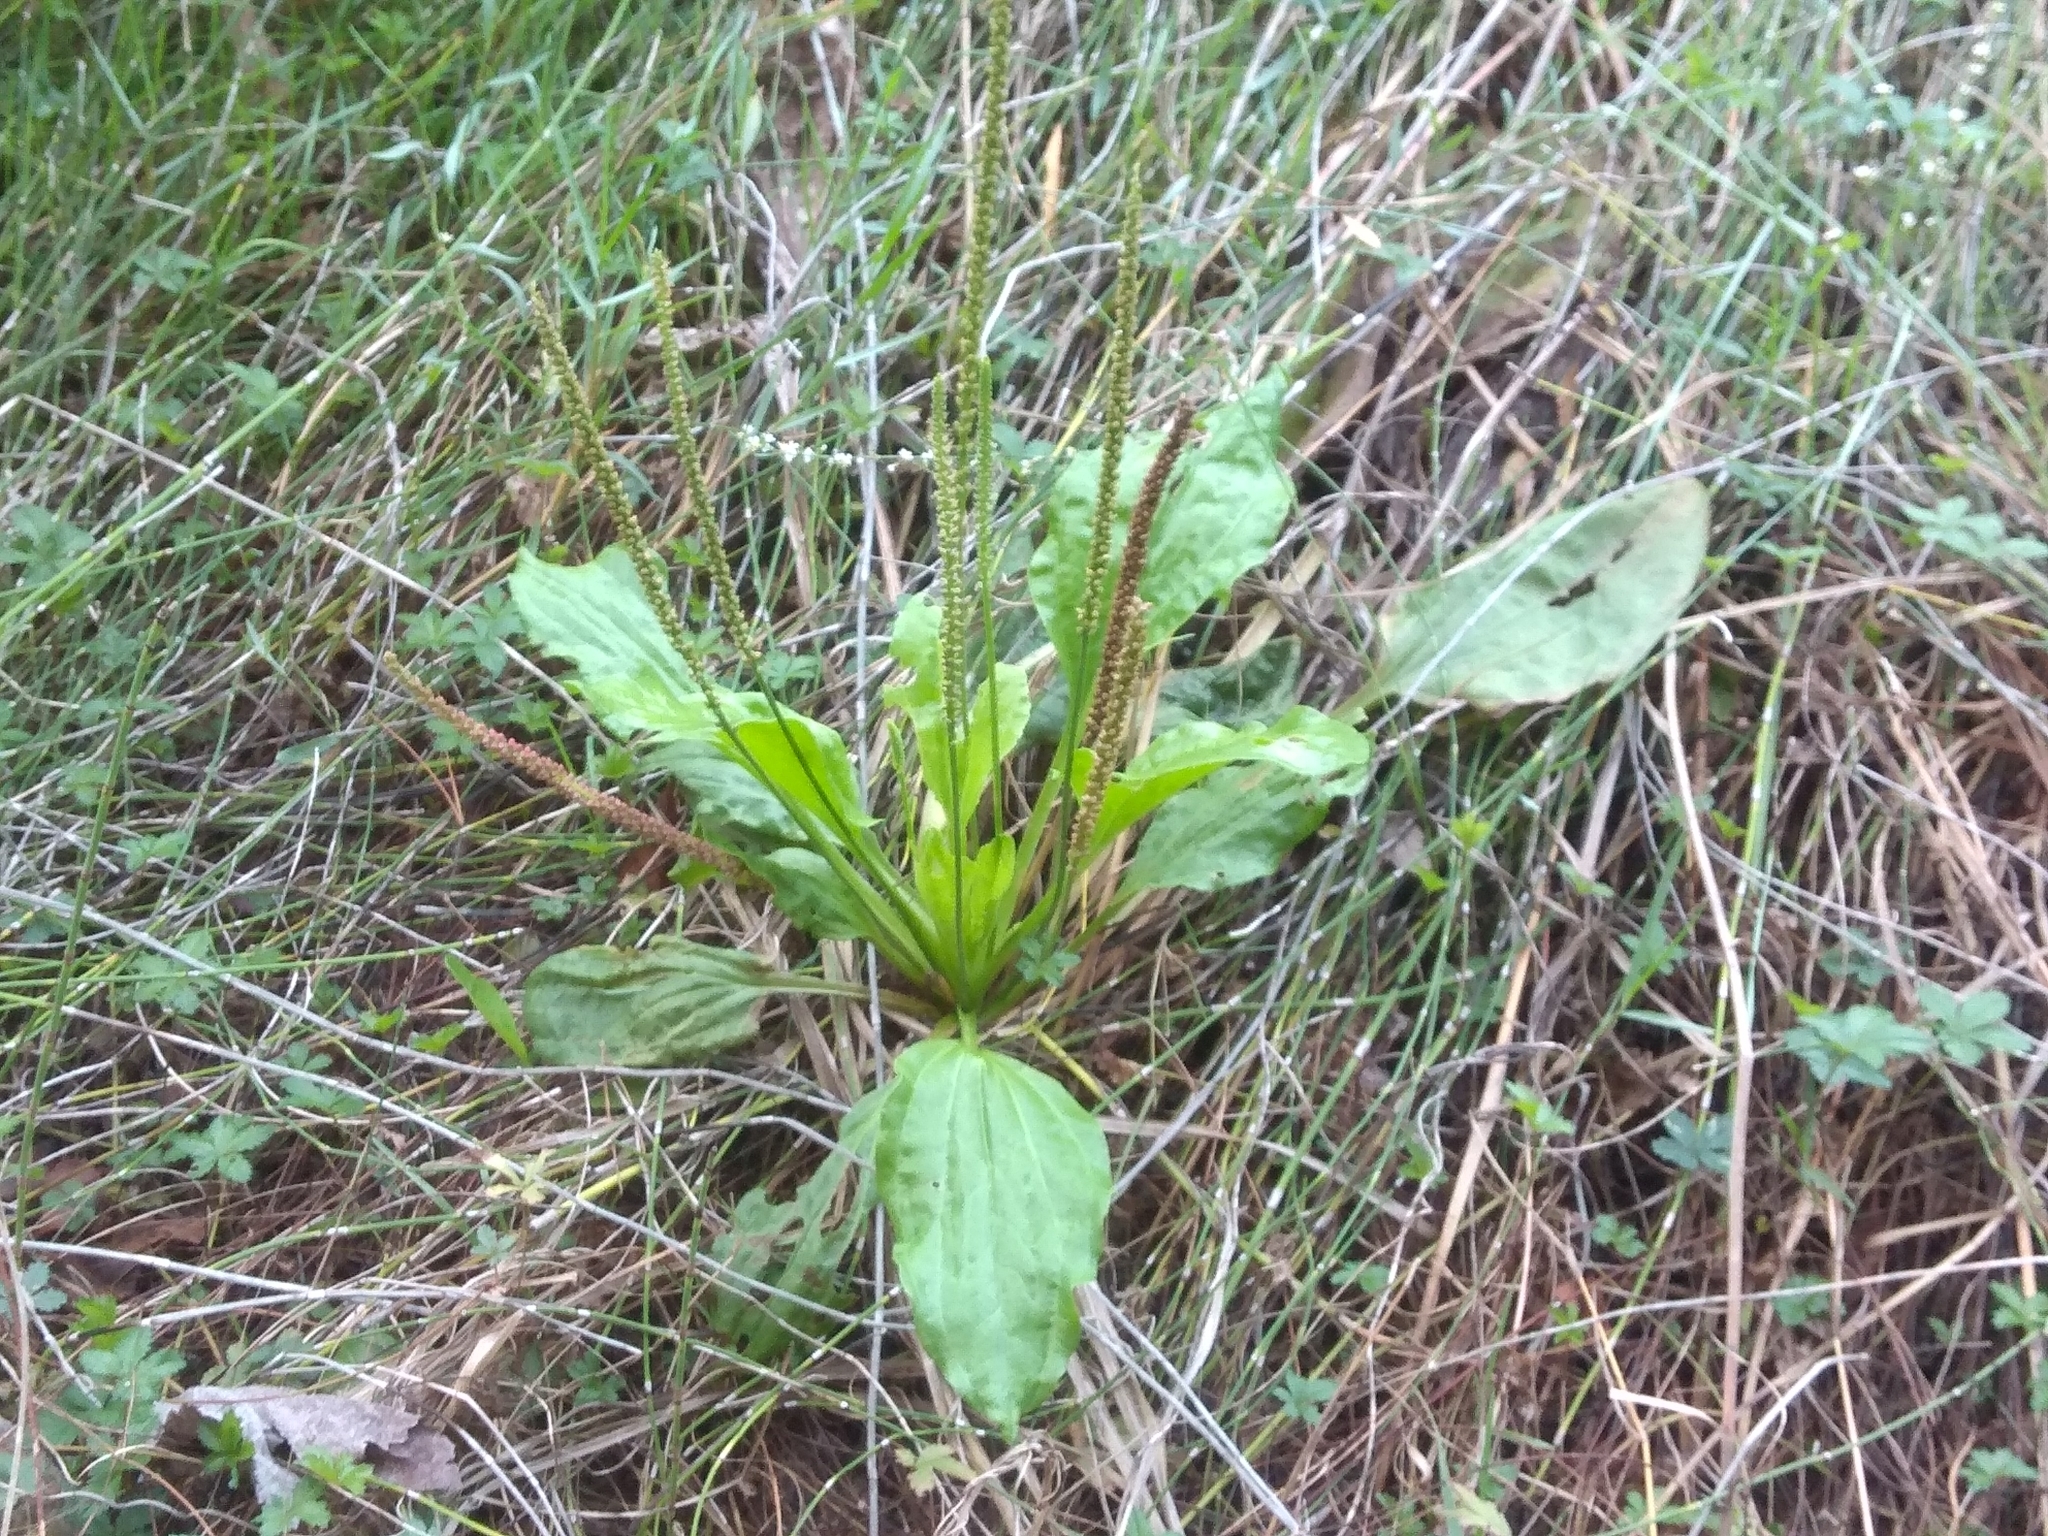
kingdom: Plantae
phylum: Tracheophyta
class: Magnoliopsida
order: Lamiales
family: Plantaginaceae
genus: Plantago
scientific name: Plantago major
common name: Common plantain
